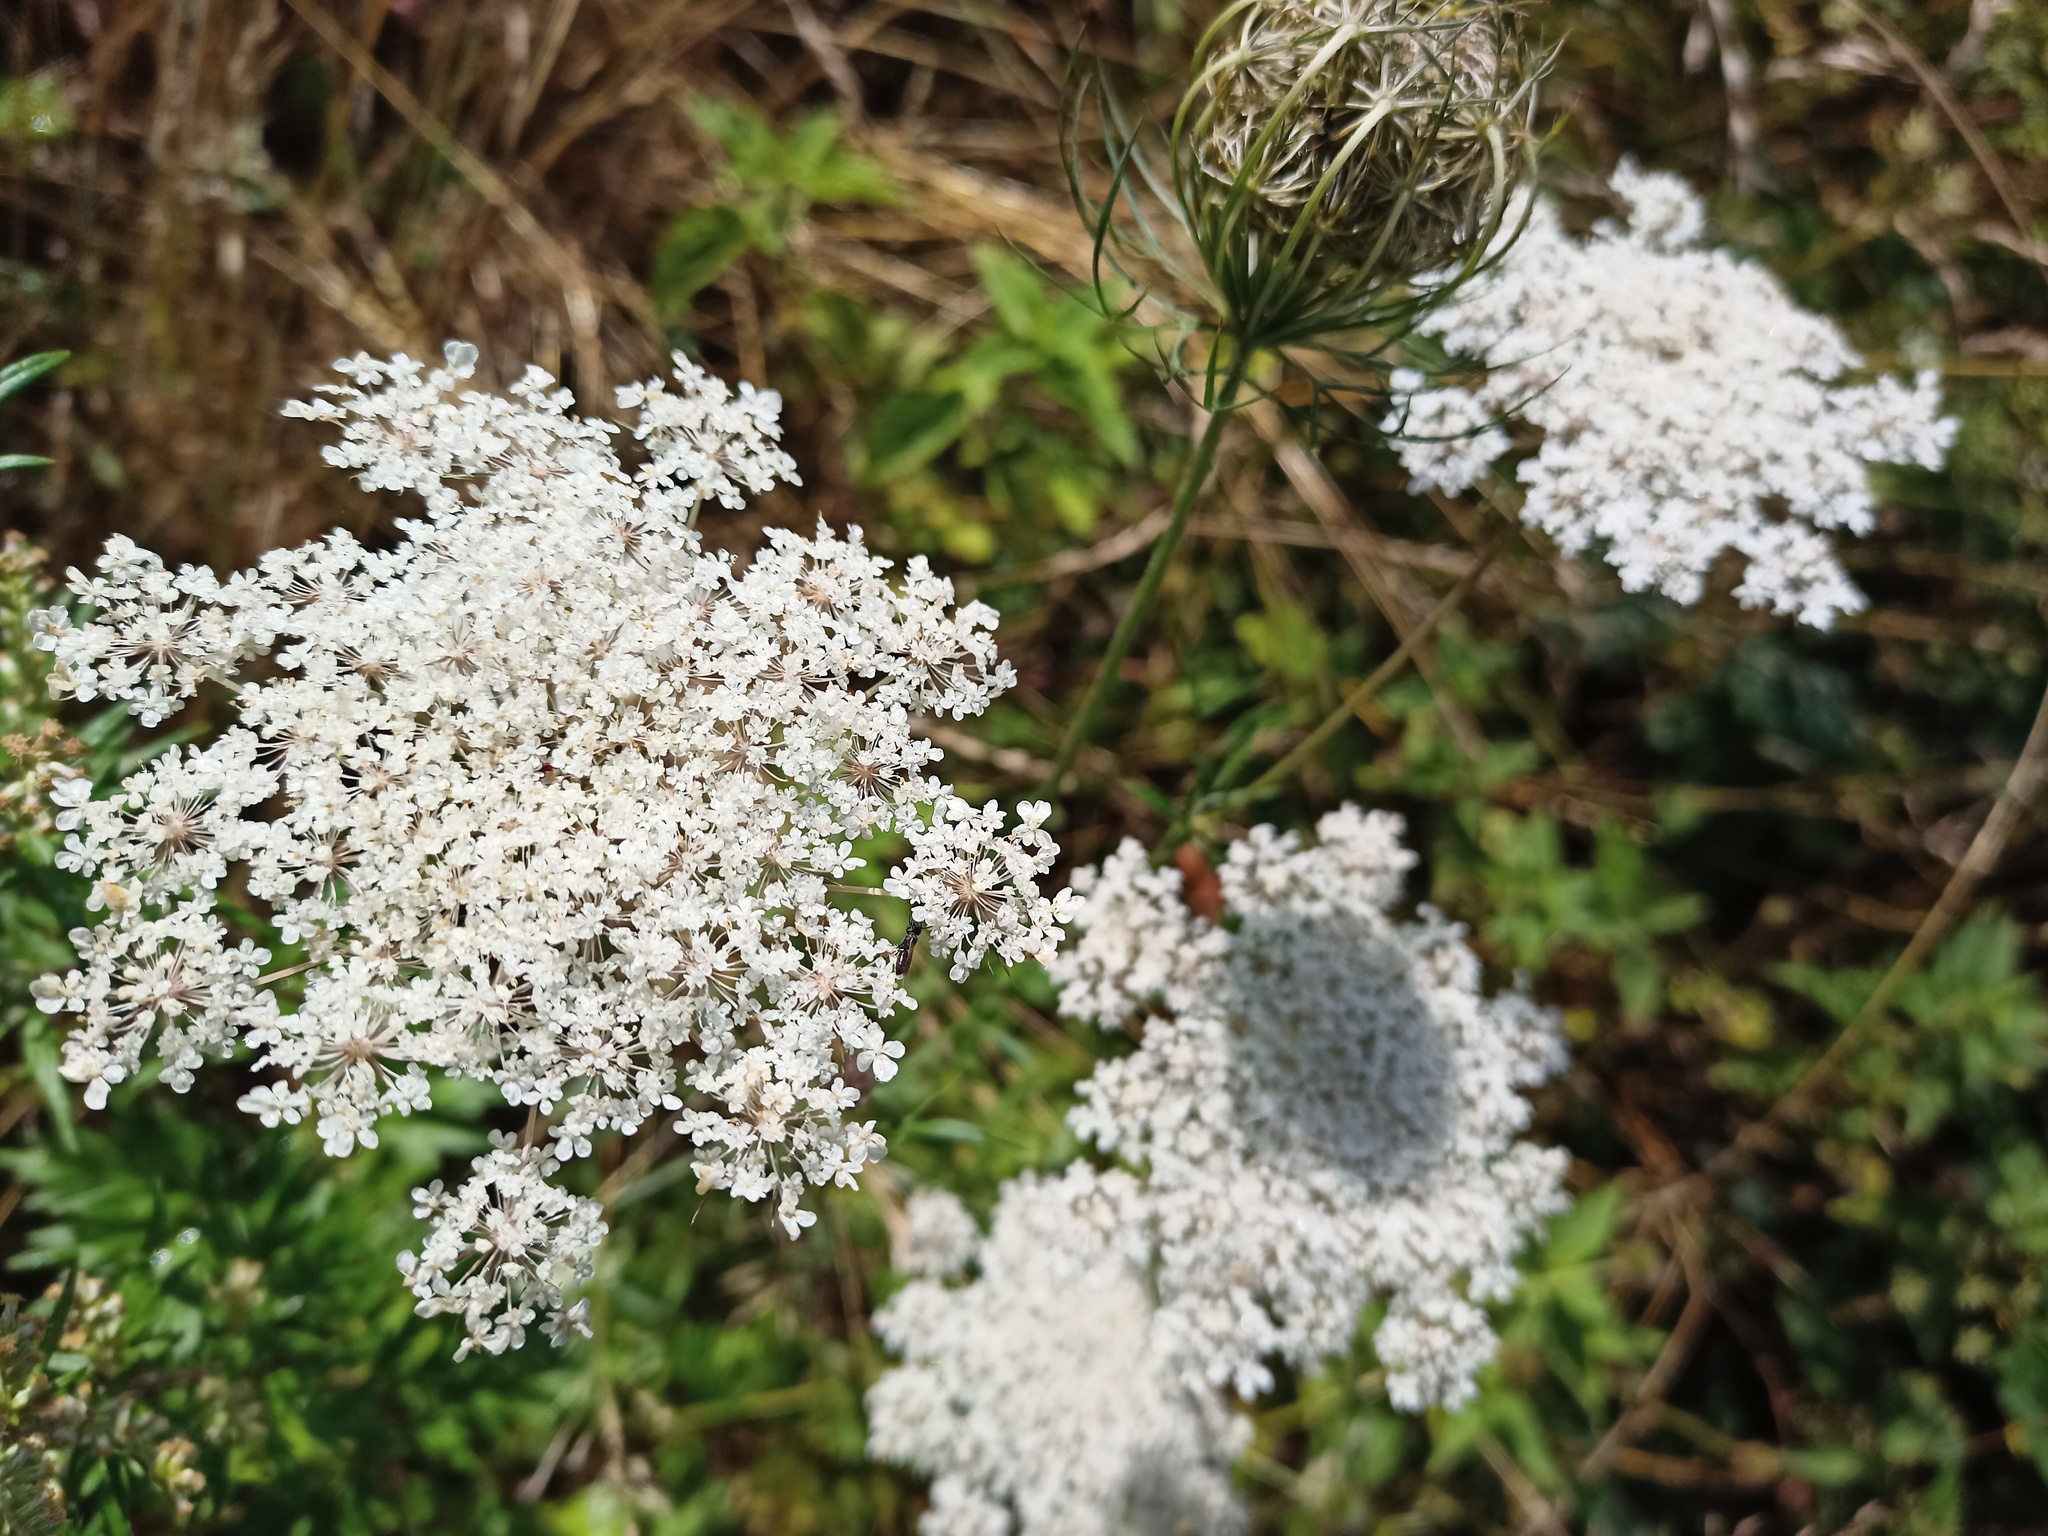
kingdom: Plantae
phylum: Tracheophyta
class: Magnoliopsida
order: Apiales
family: Apiaceae
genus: Daucus
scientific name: Daucus carota
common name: Wild carrot
